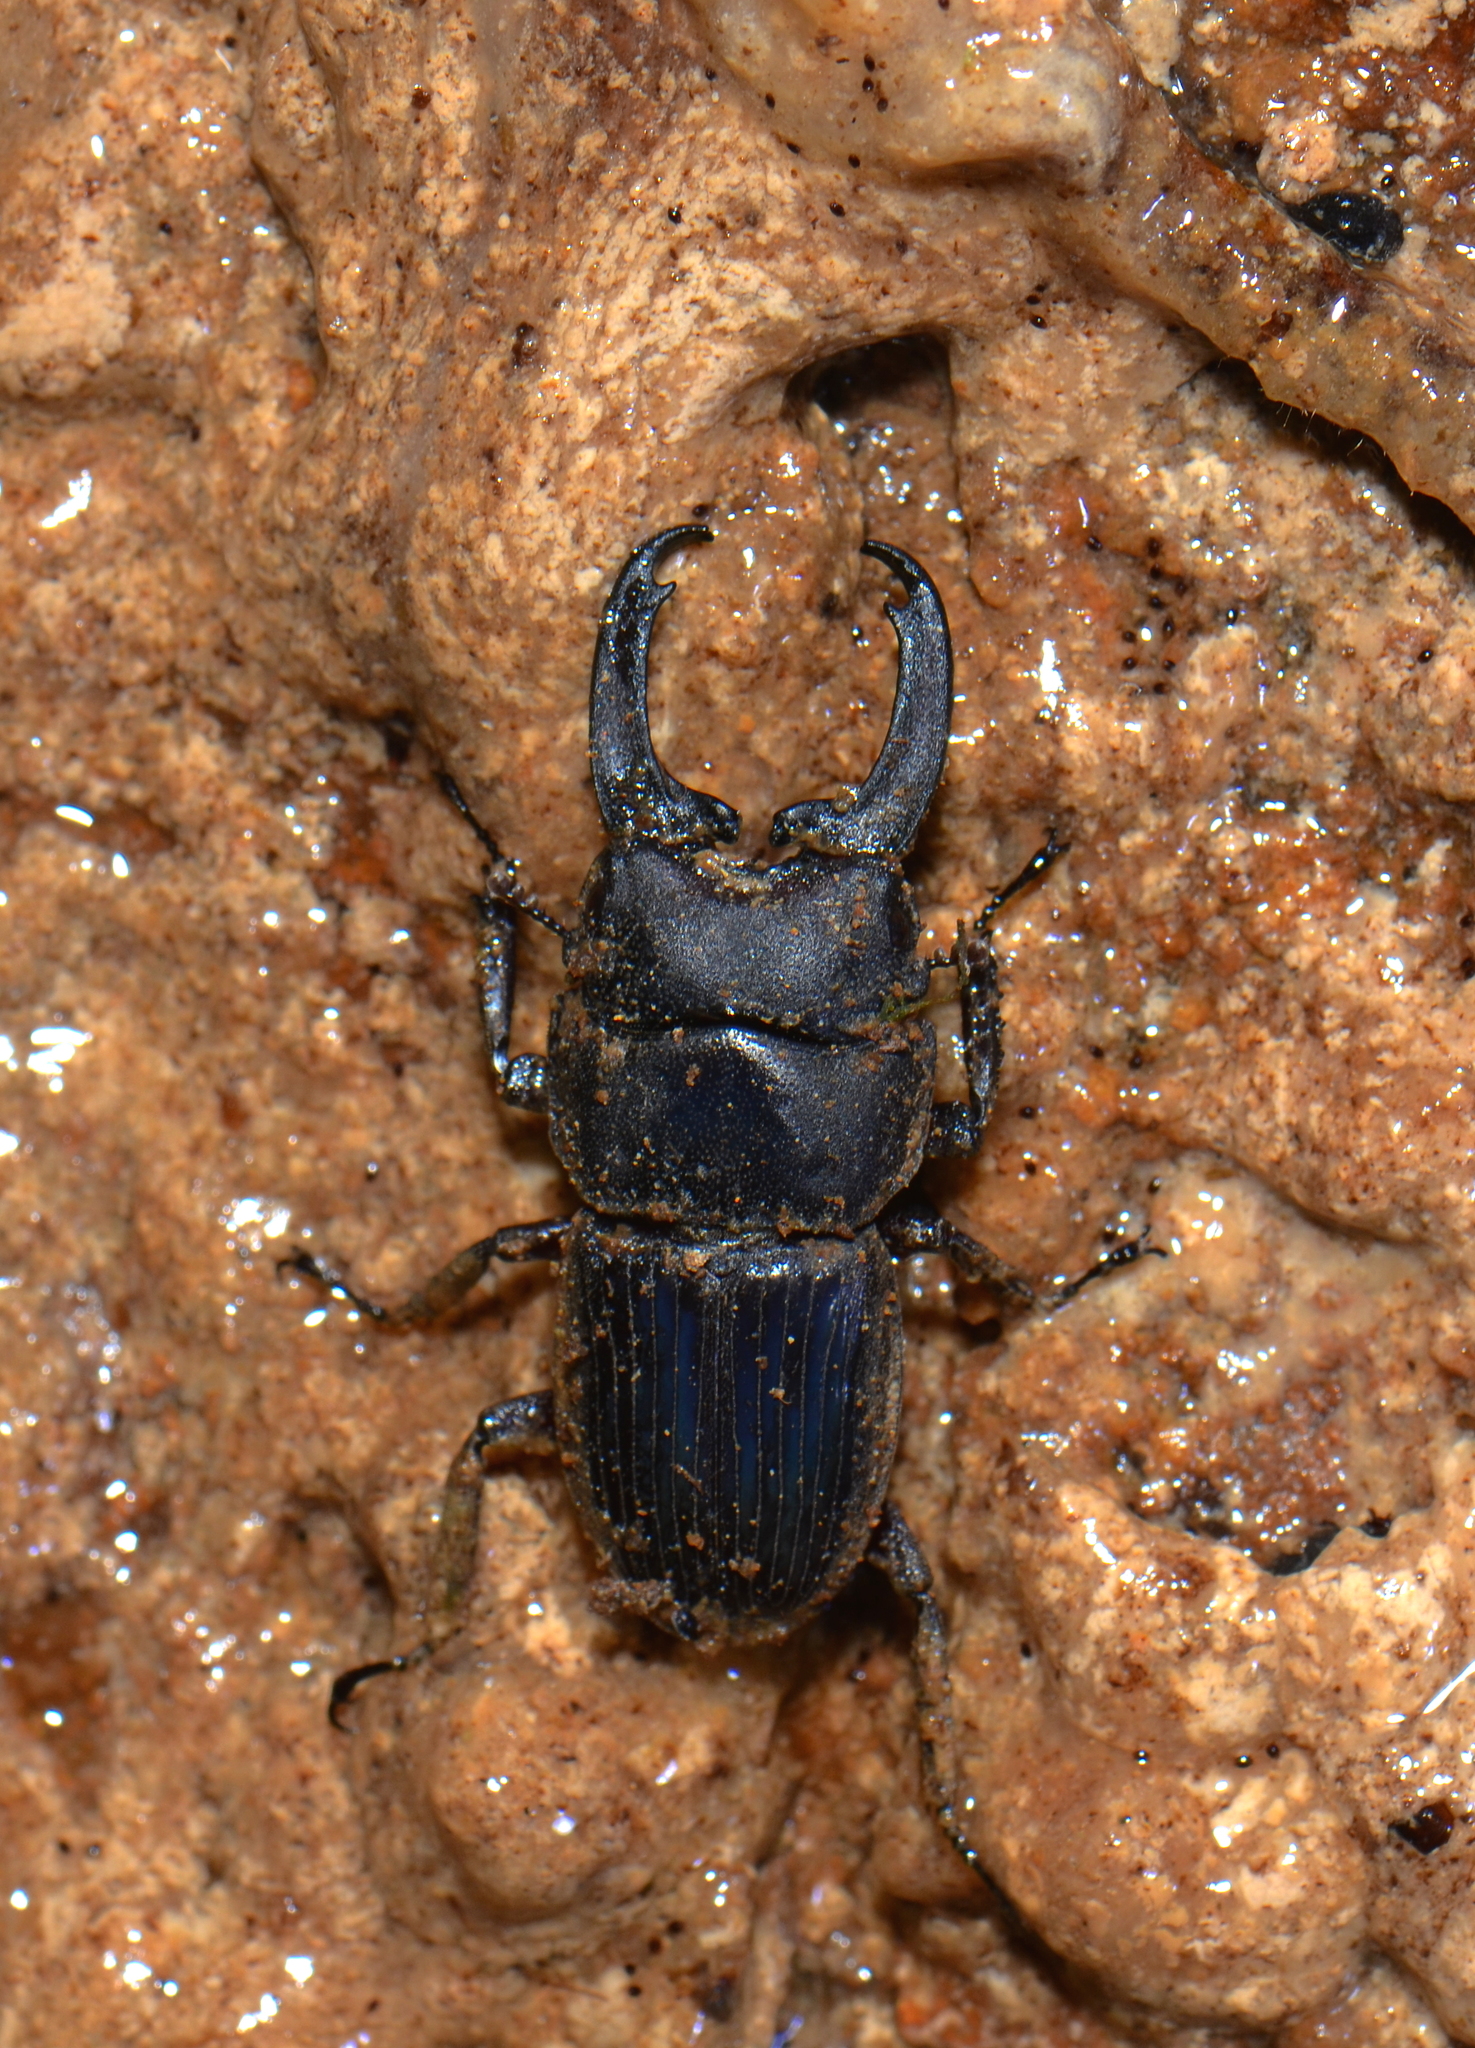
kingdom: Animalia
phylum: Arthropoda
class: Insecta
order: Coleoptera
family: Lucanidae
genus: Aegus
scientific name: Aegus impressicollis
